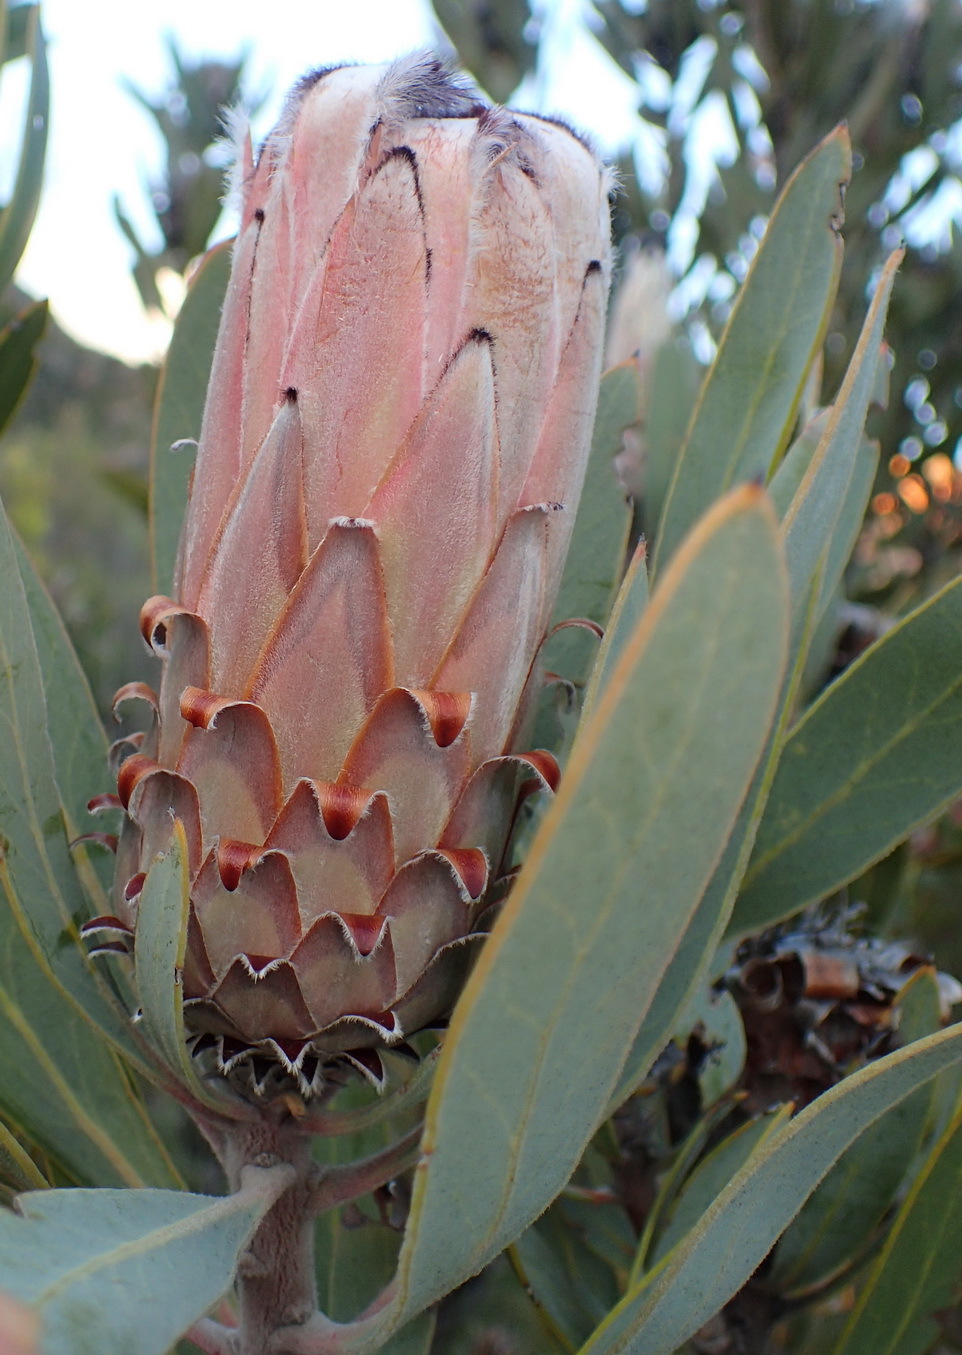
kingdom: Plantae
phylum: Tracheophyta
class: Magnoliopsida
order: Proteales
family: Proteaceae
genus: Protea
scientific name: Protea laurifolia
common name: Grey-leaf sugarbsh
